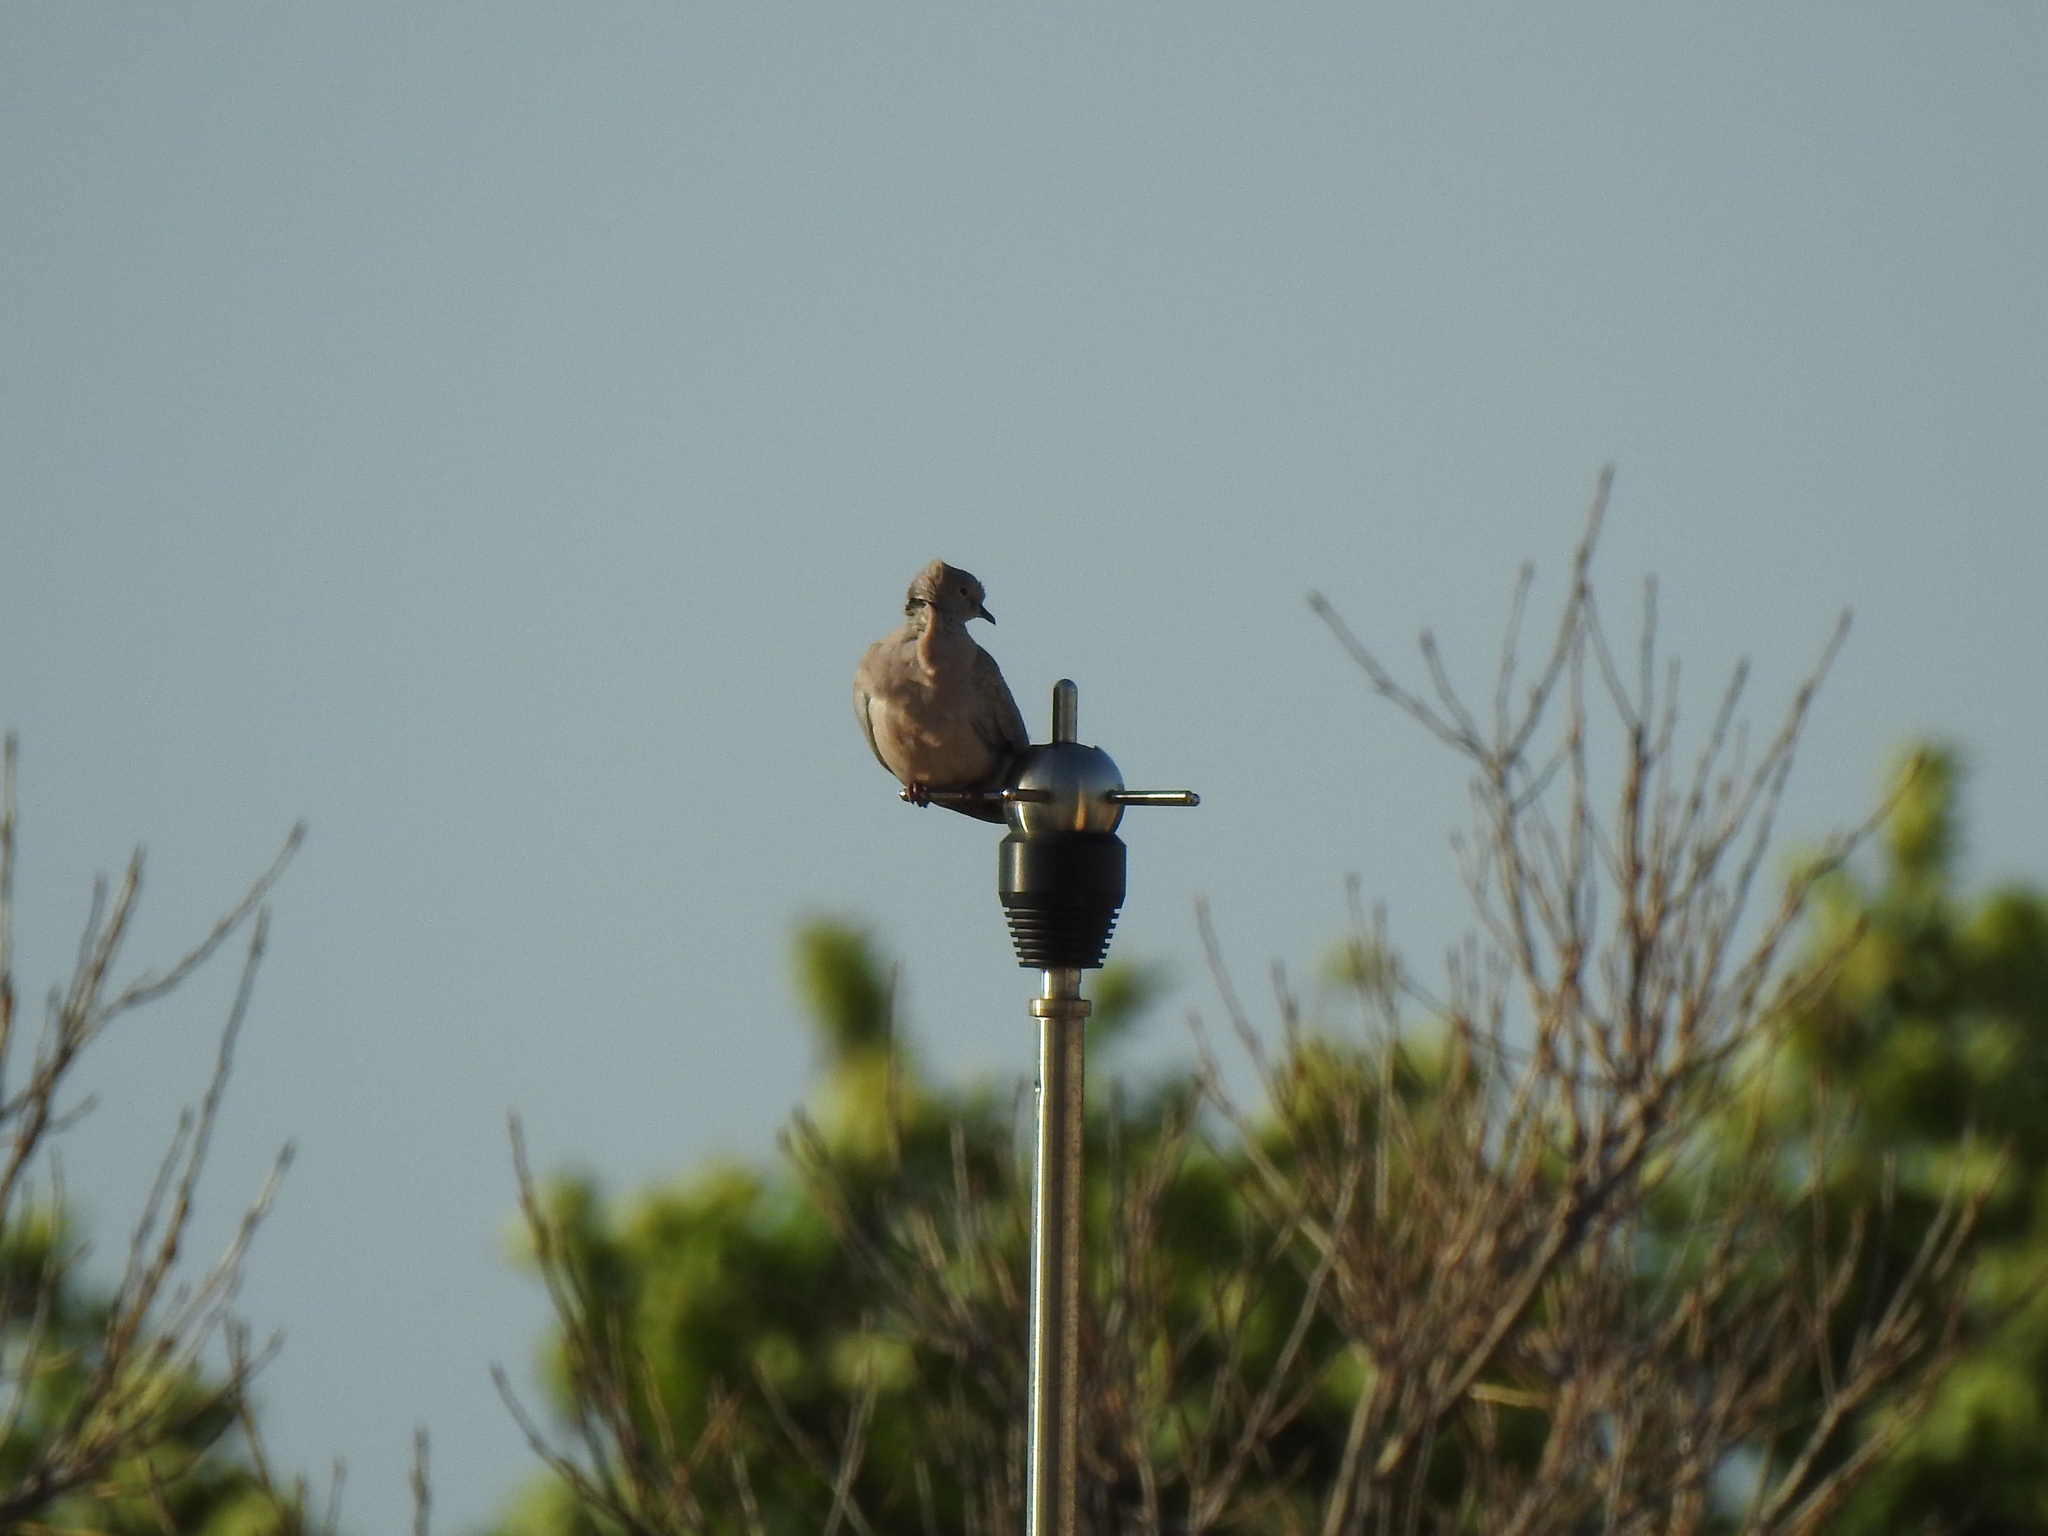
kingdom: Animalia
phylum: Chordata
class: Aves
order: Columbiformes
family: Columbidae
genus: Streptopelia
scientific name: Streptopelia decaocto
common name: Eurasian collared dove
